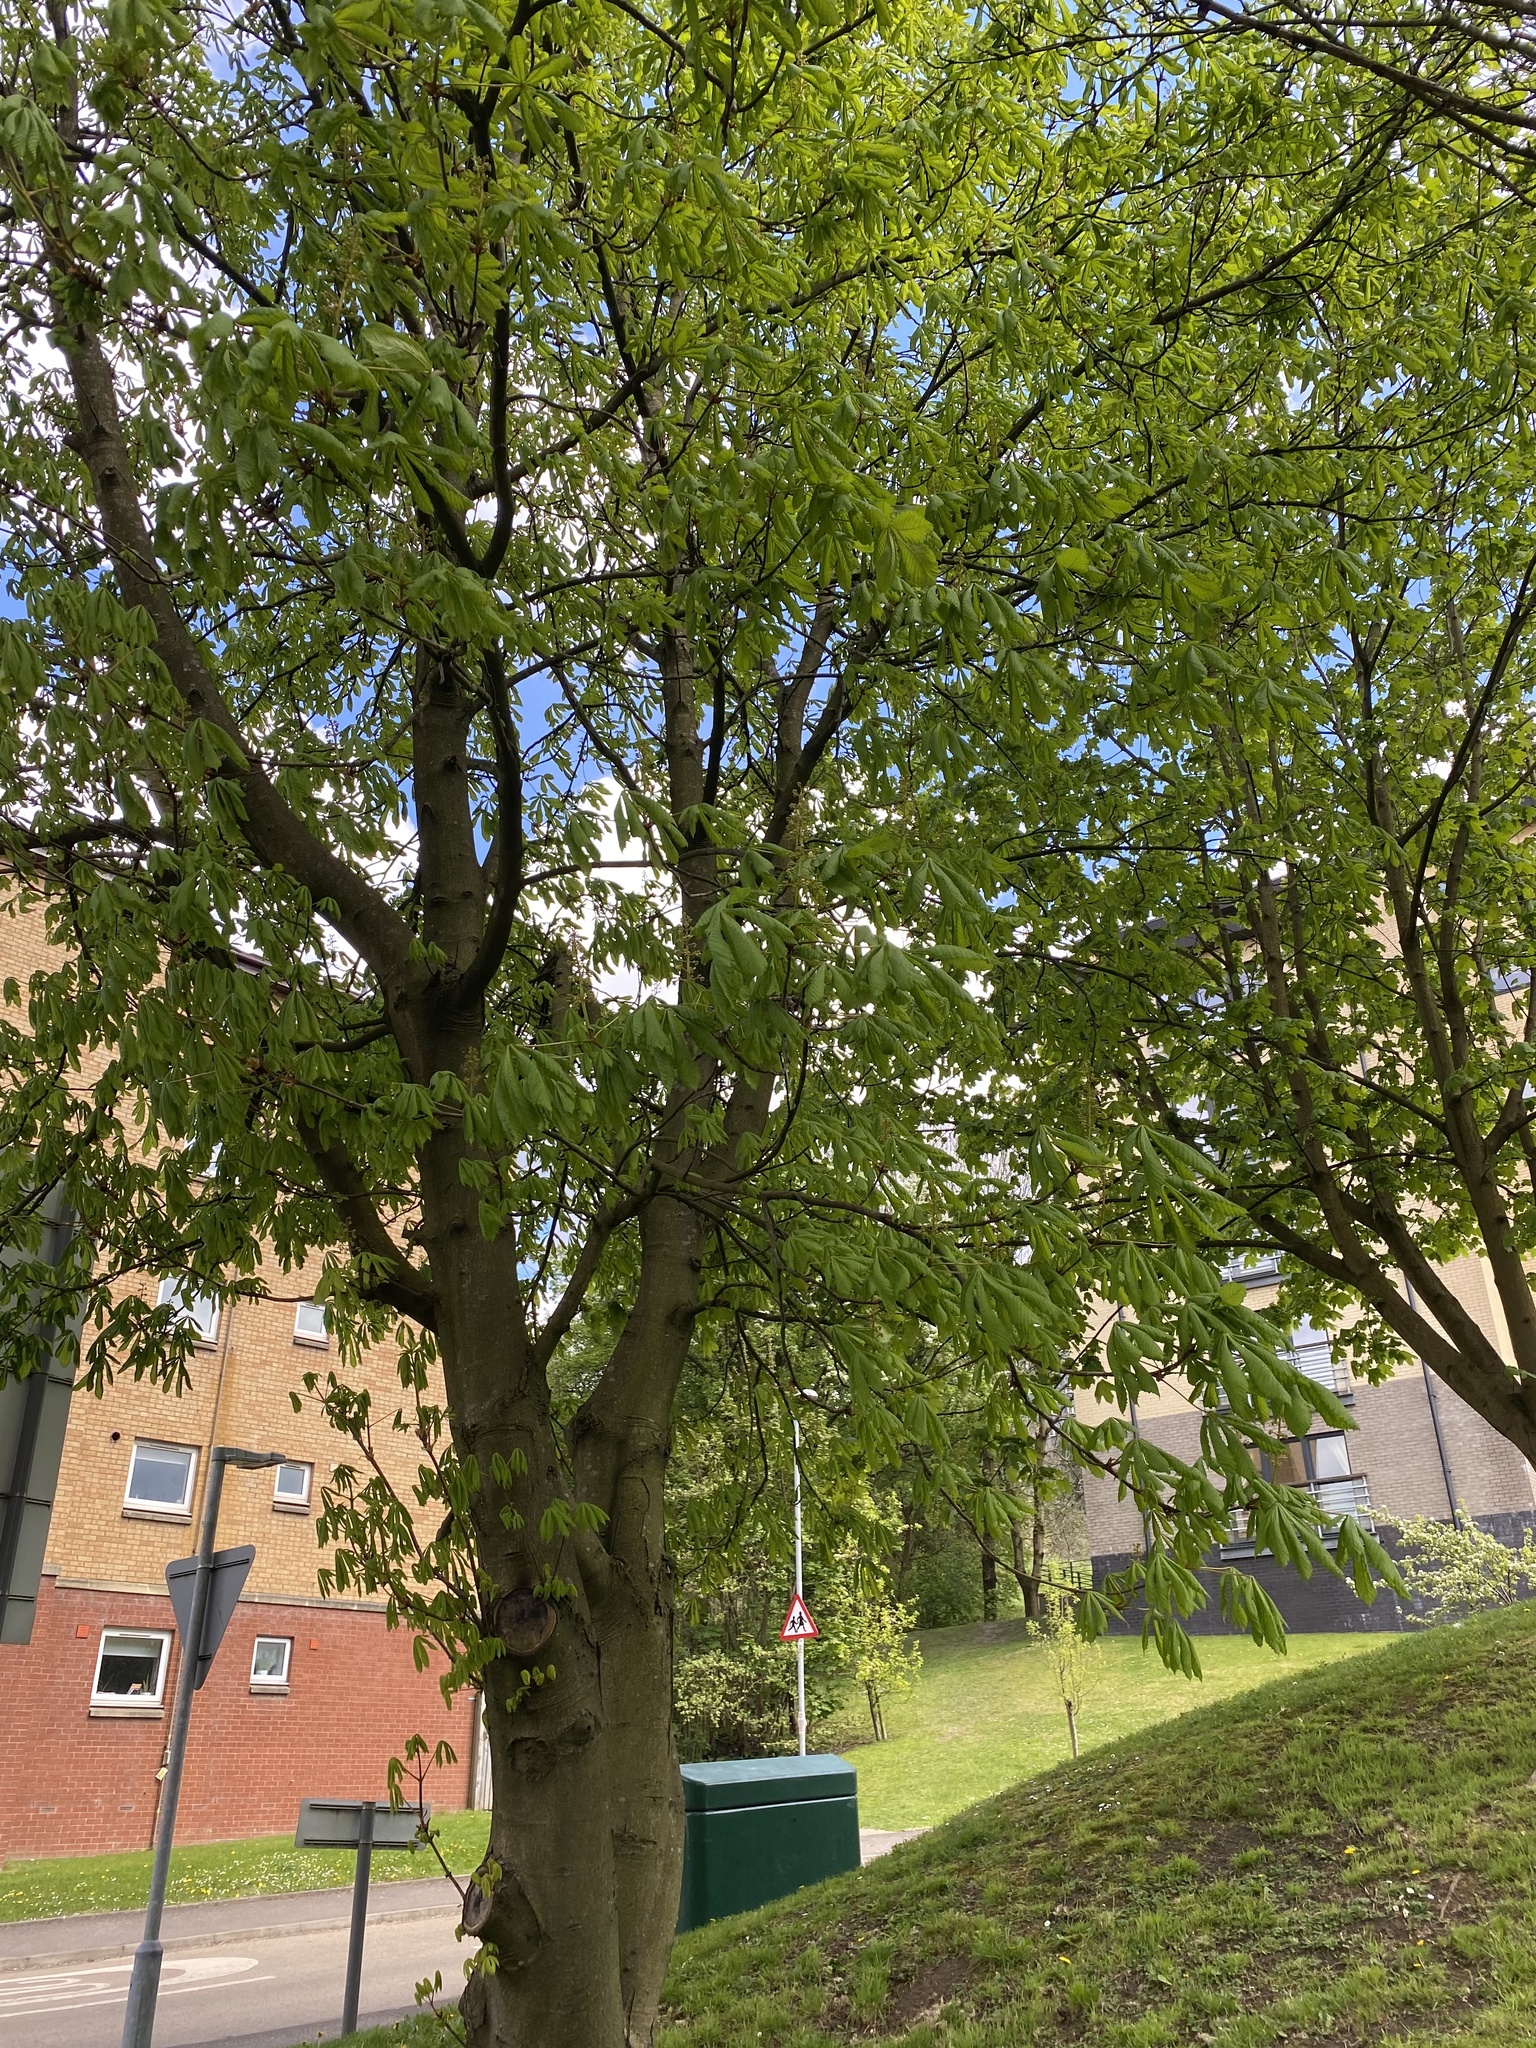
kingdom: Plantae
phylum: Tracheophyta
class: Magnoliopsida
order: Sapindales
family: Sapindaceae
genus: Aesculus
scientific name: Aesculus hippocastanum
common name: Horse-chestnut
